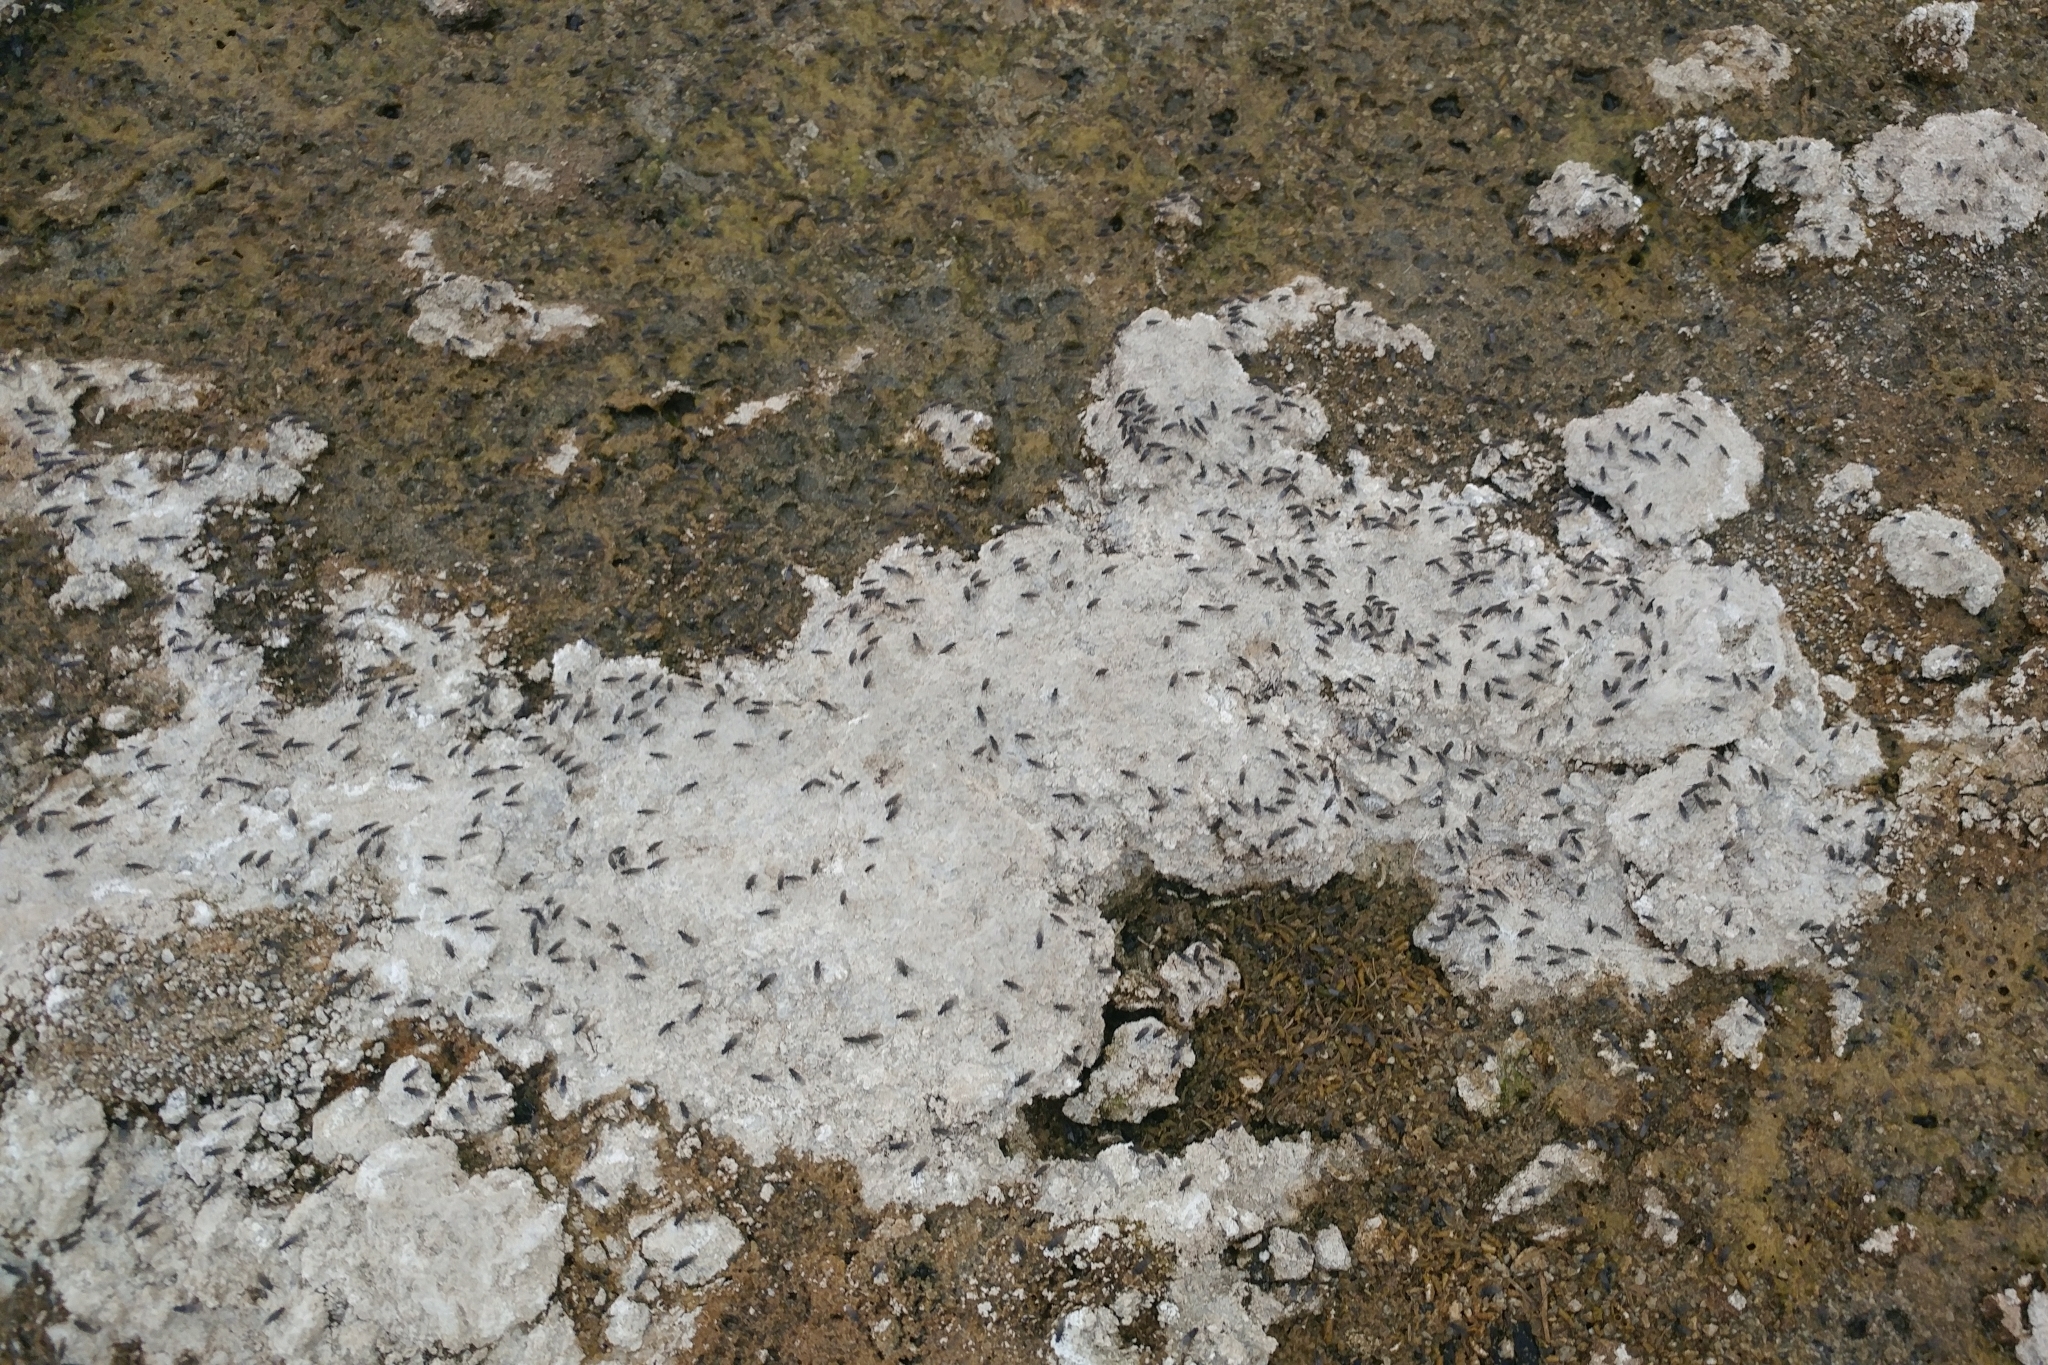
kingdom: Animalia
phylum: Arthropoda
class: Insecta
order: Diptera
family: Ephydridae
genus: Cirrula
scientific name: Cirrula hians
